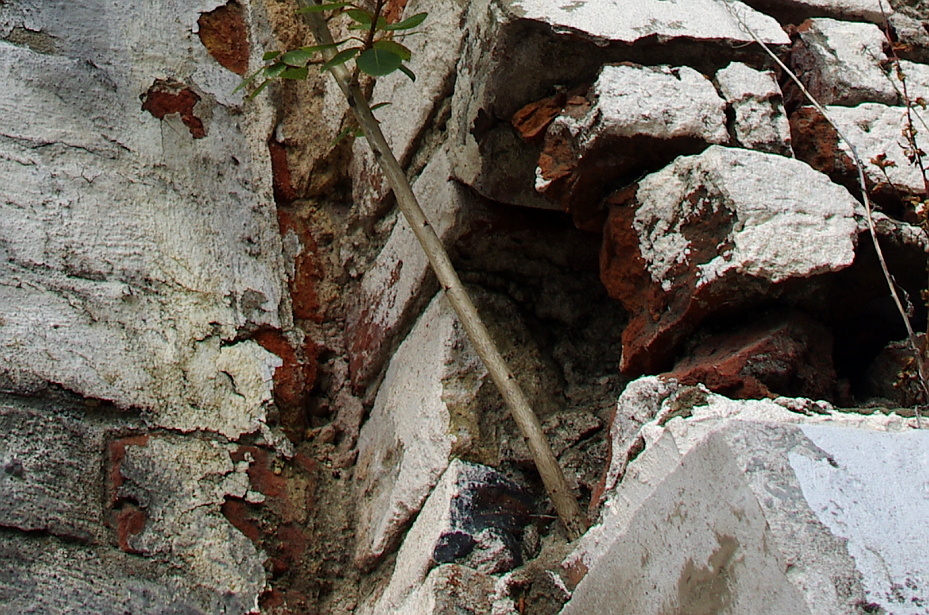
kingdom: Plantae
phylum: Tracheophyta
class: Magnoliopsida
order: Malpighiales
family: Salicaceae
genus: Populus
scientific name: Populus
